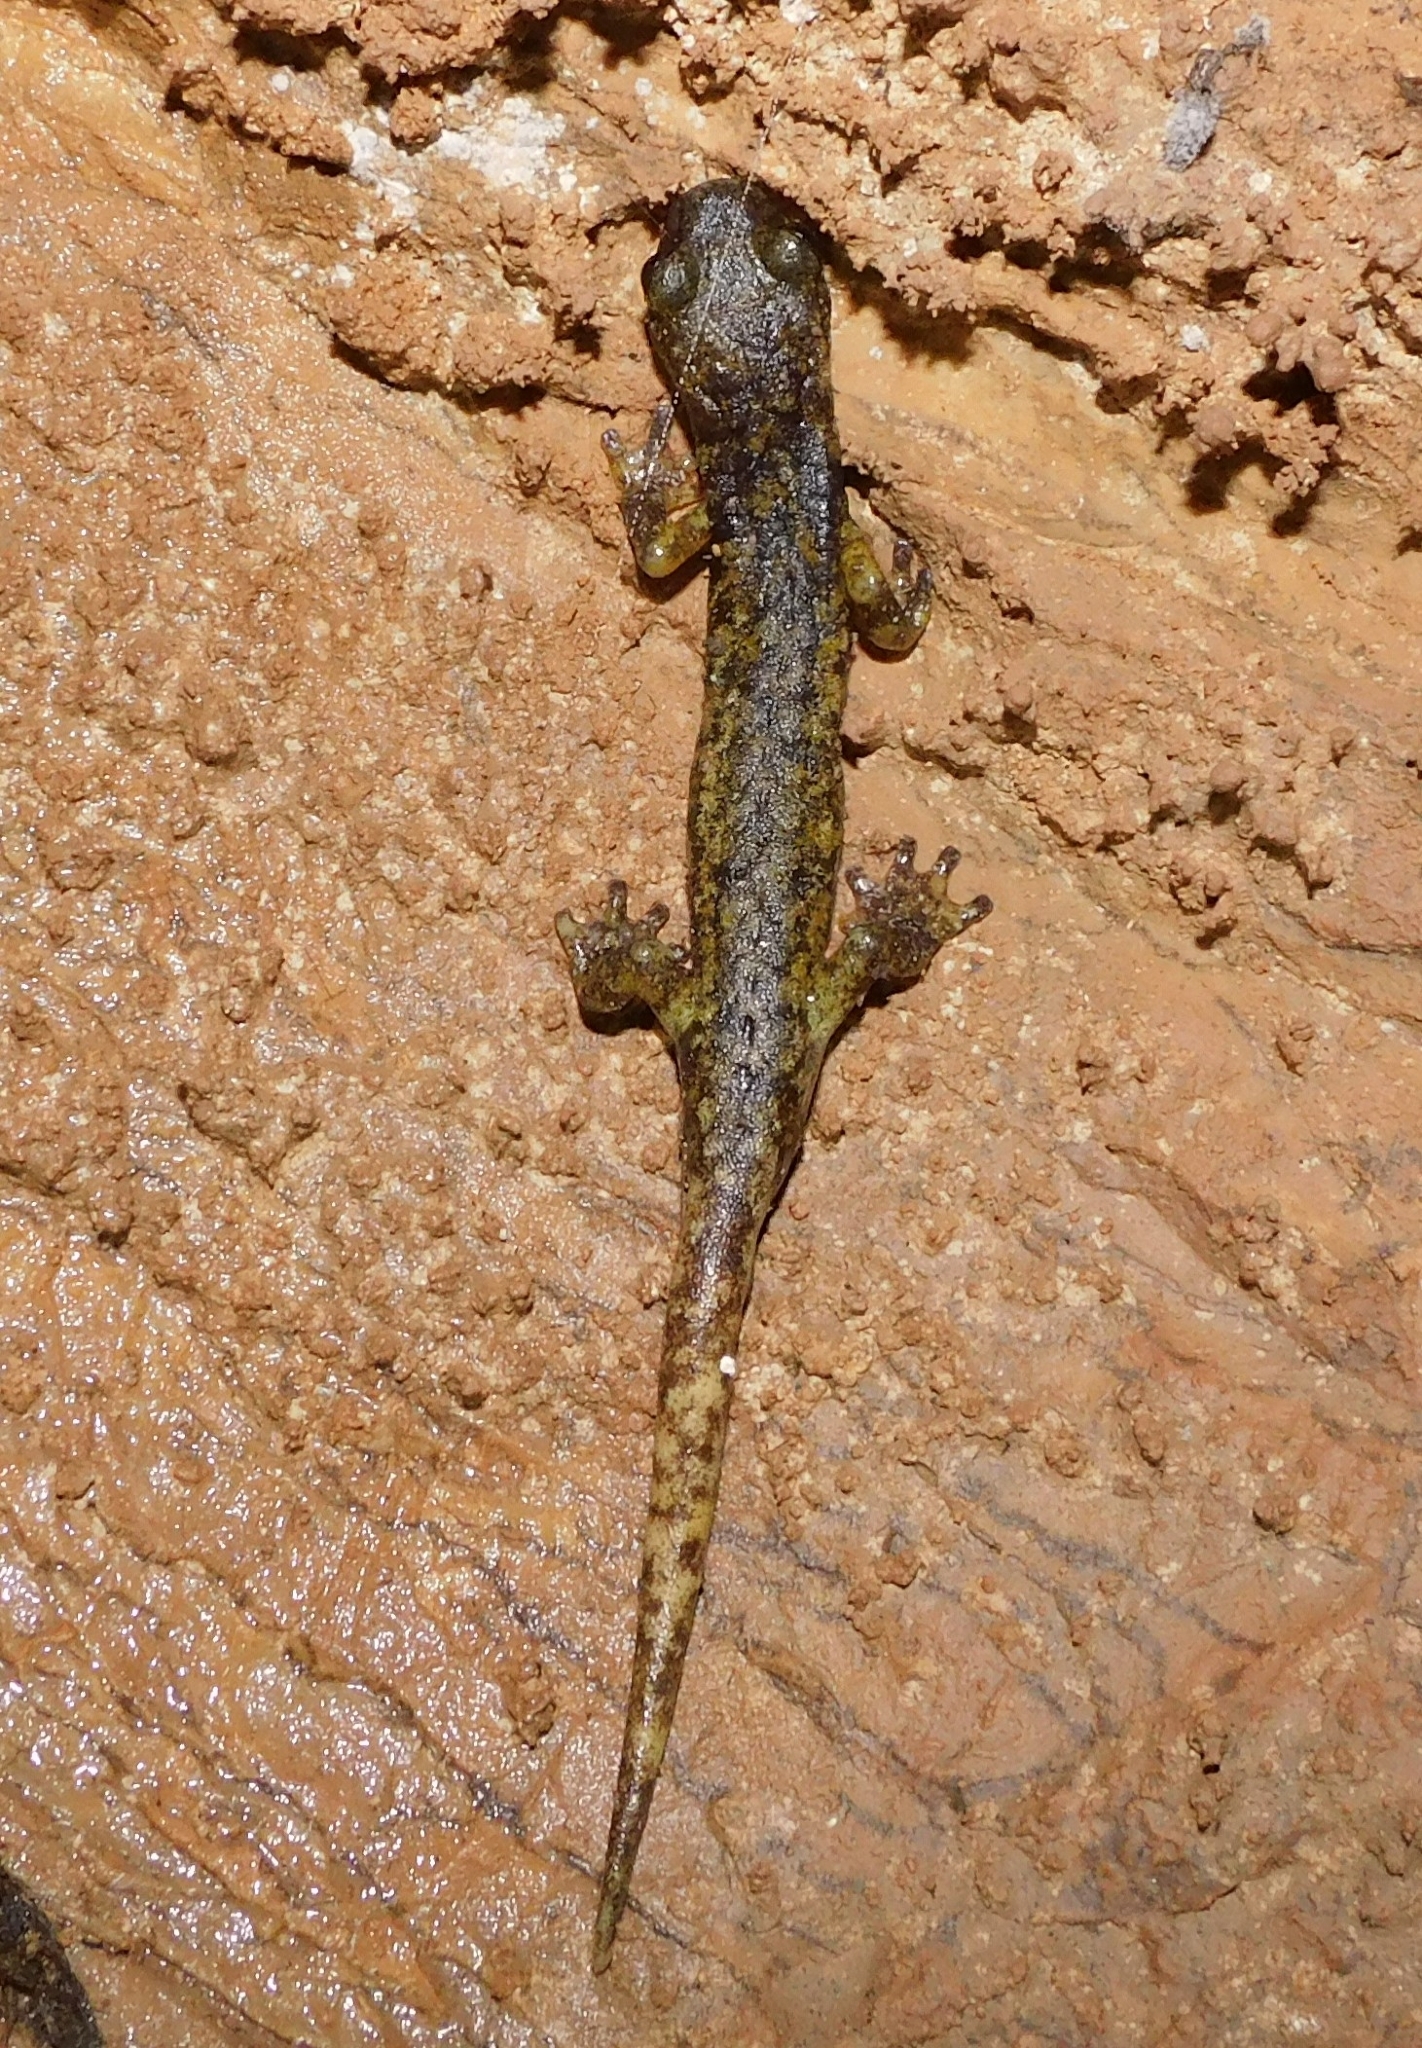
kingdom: Animalia
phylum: Chordata
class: Amphibia
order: Caudata
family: Plethodontidae
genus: Speleomantes
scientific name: Speleomantes ambrosii
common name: Ambrosi's cave salamander
